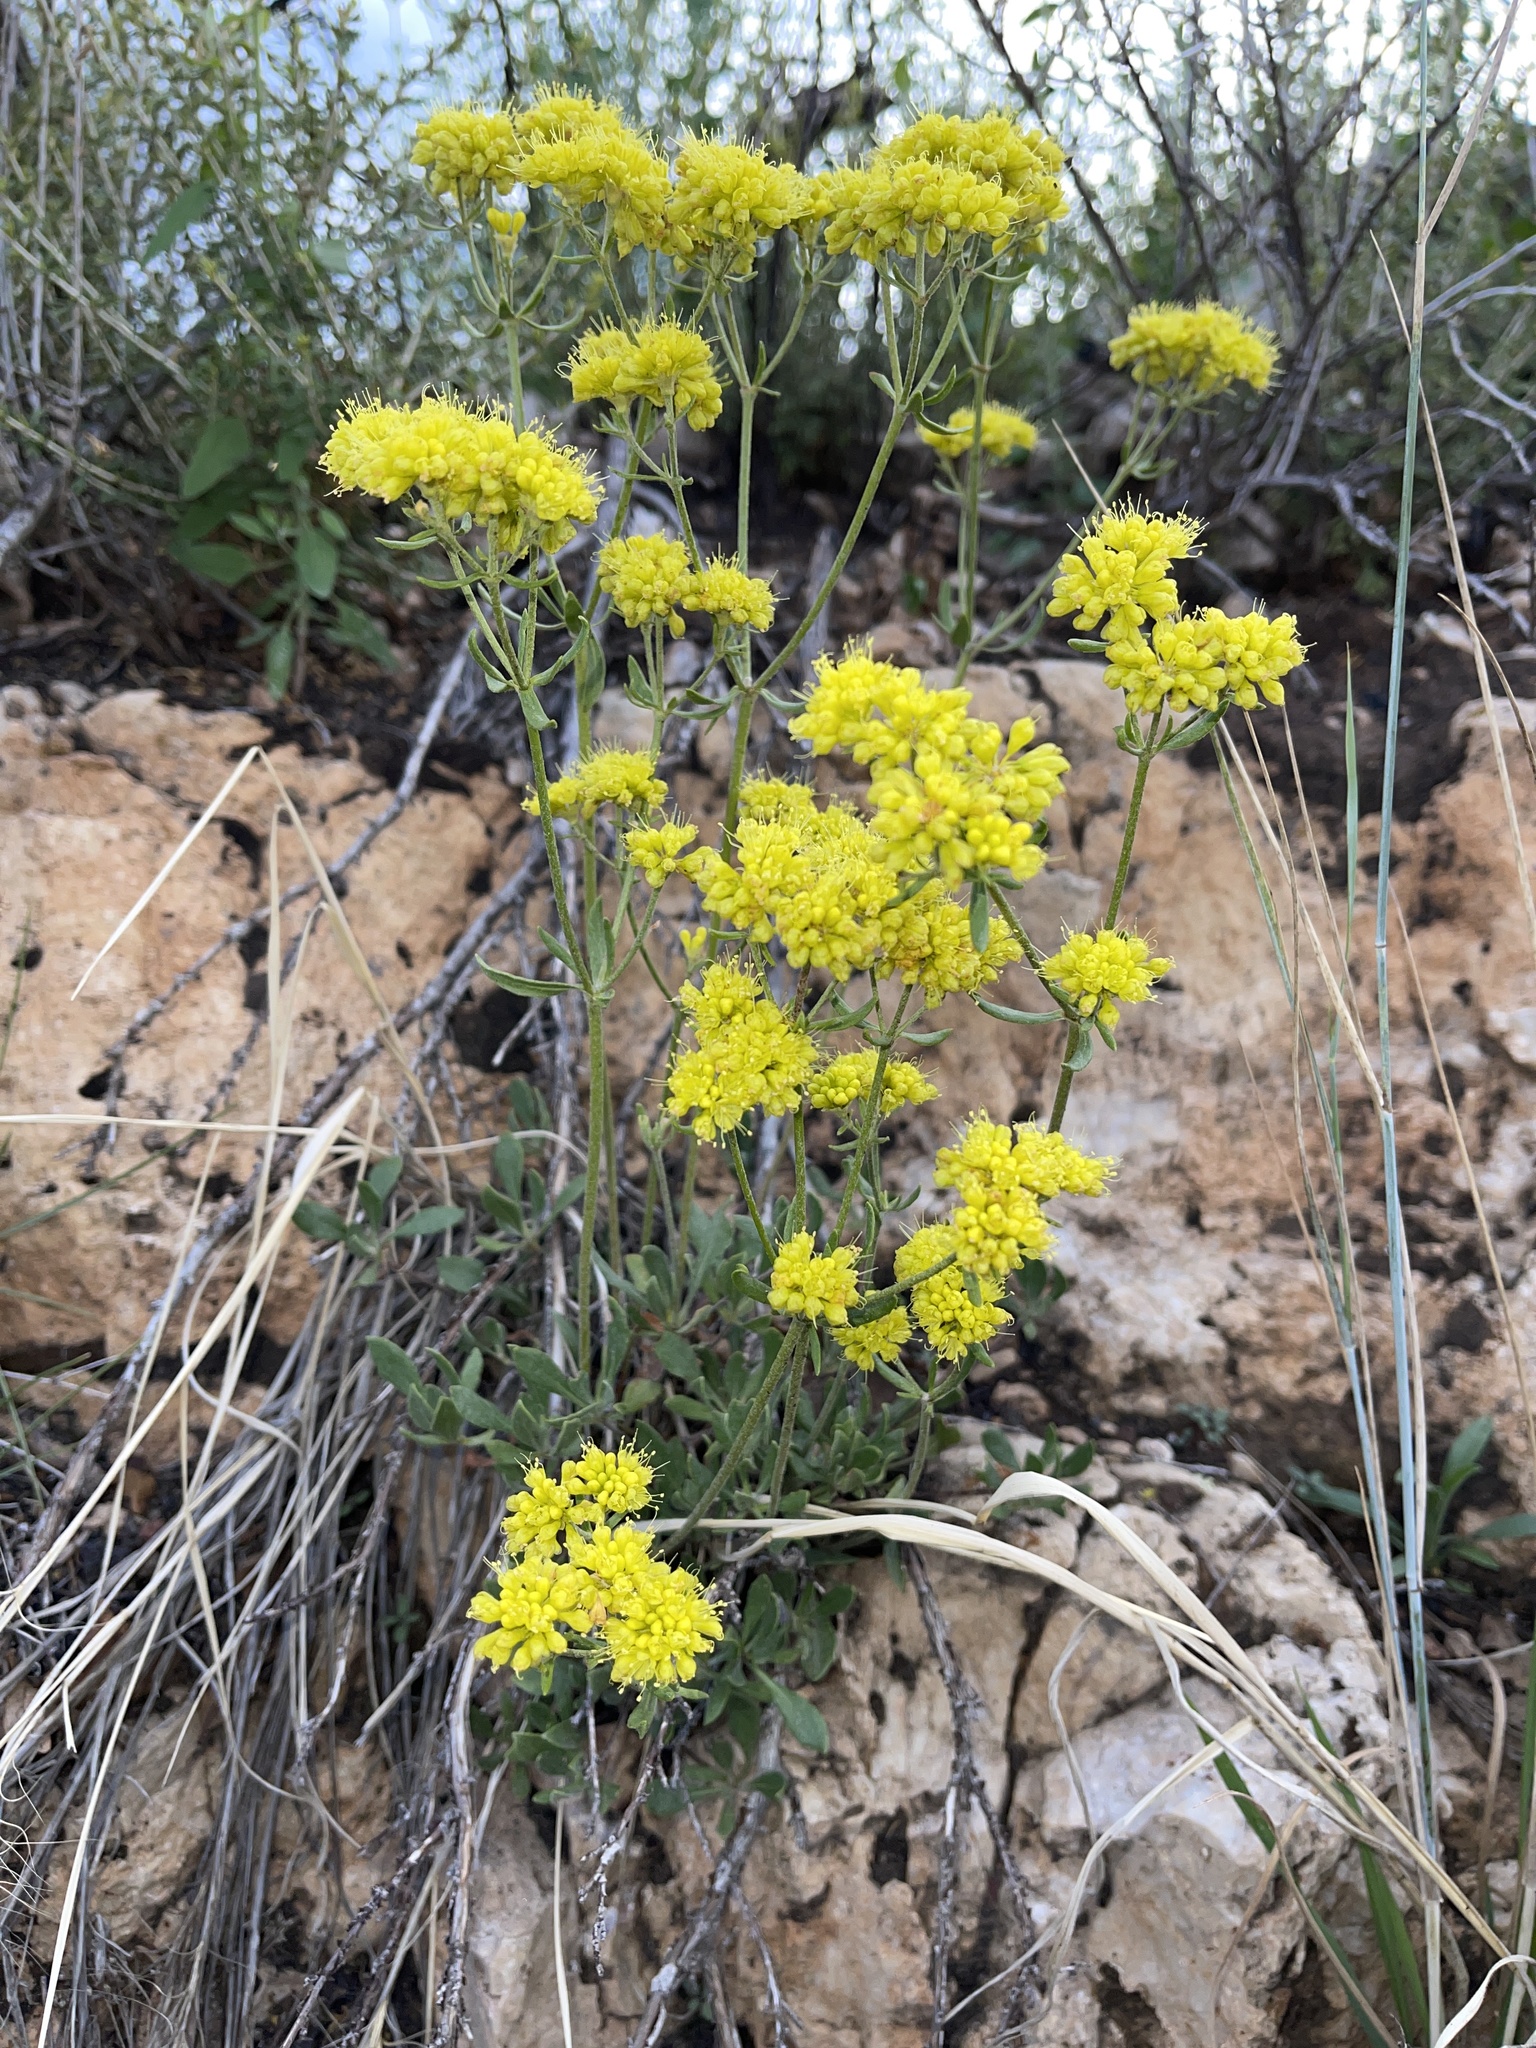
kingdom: Plantae
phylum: Tracheophyta
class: Magnoliopsida
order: Caryophyllales
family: Polygonaceae
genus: Eriogonum
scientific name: Eriogonum umbellatum
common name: Sulfur-buckwheat
